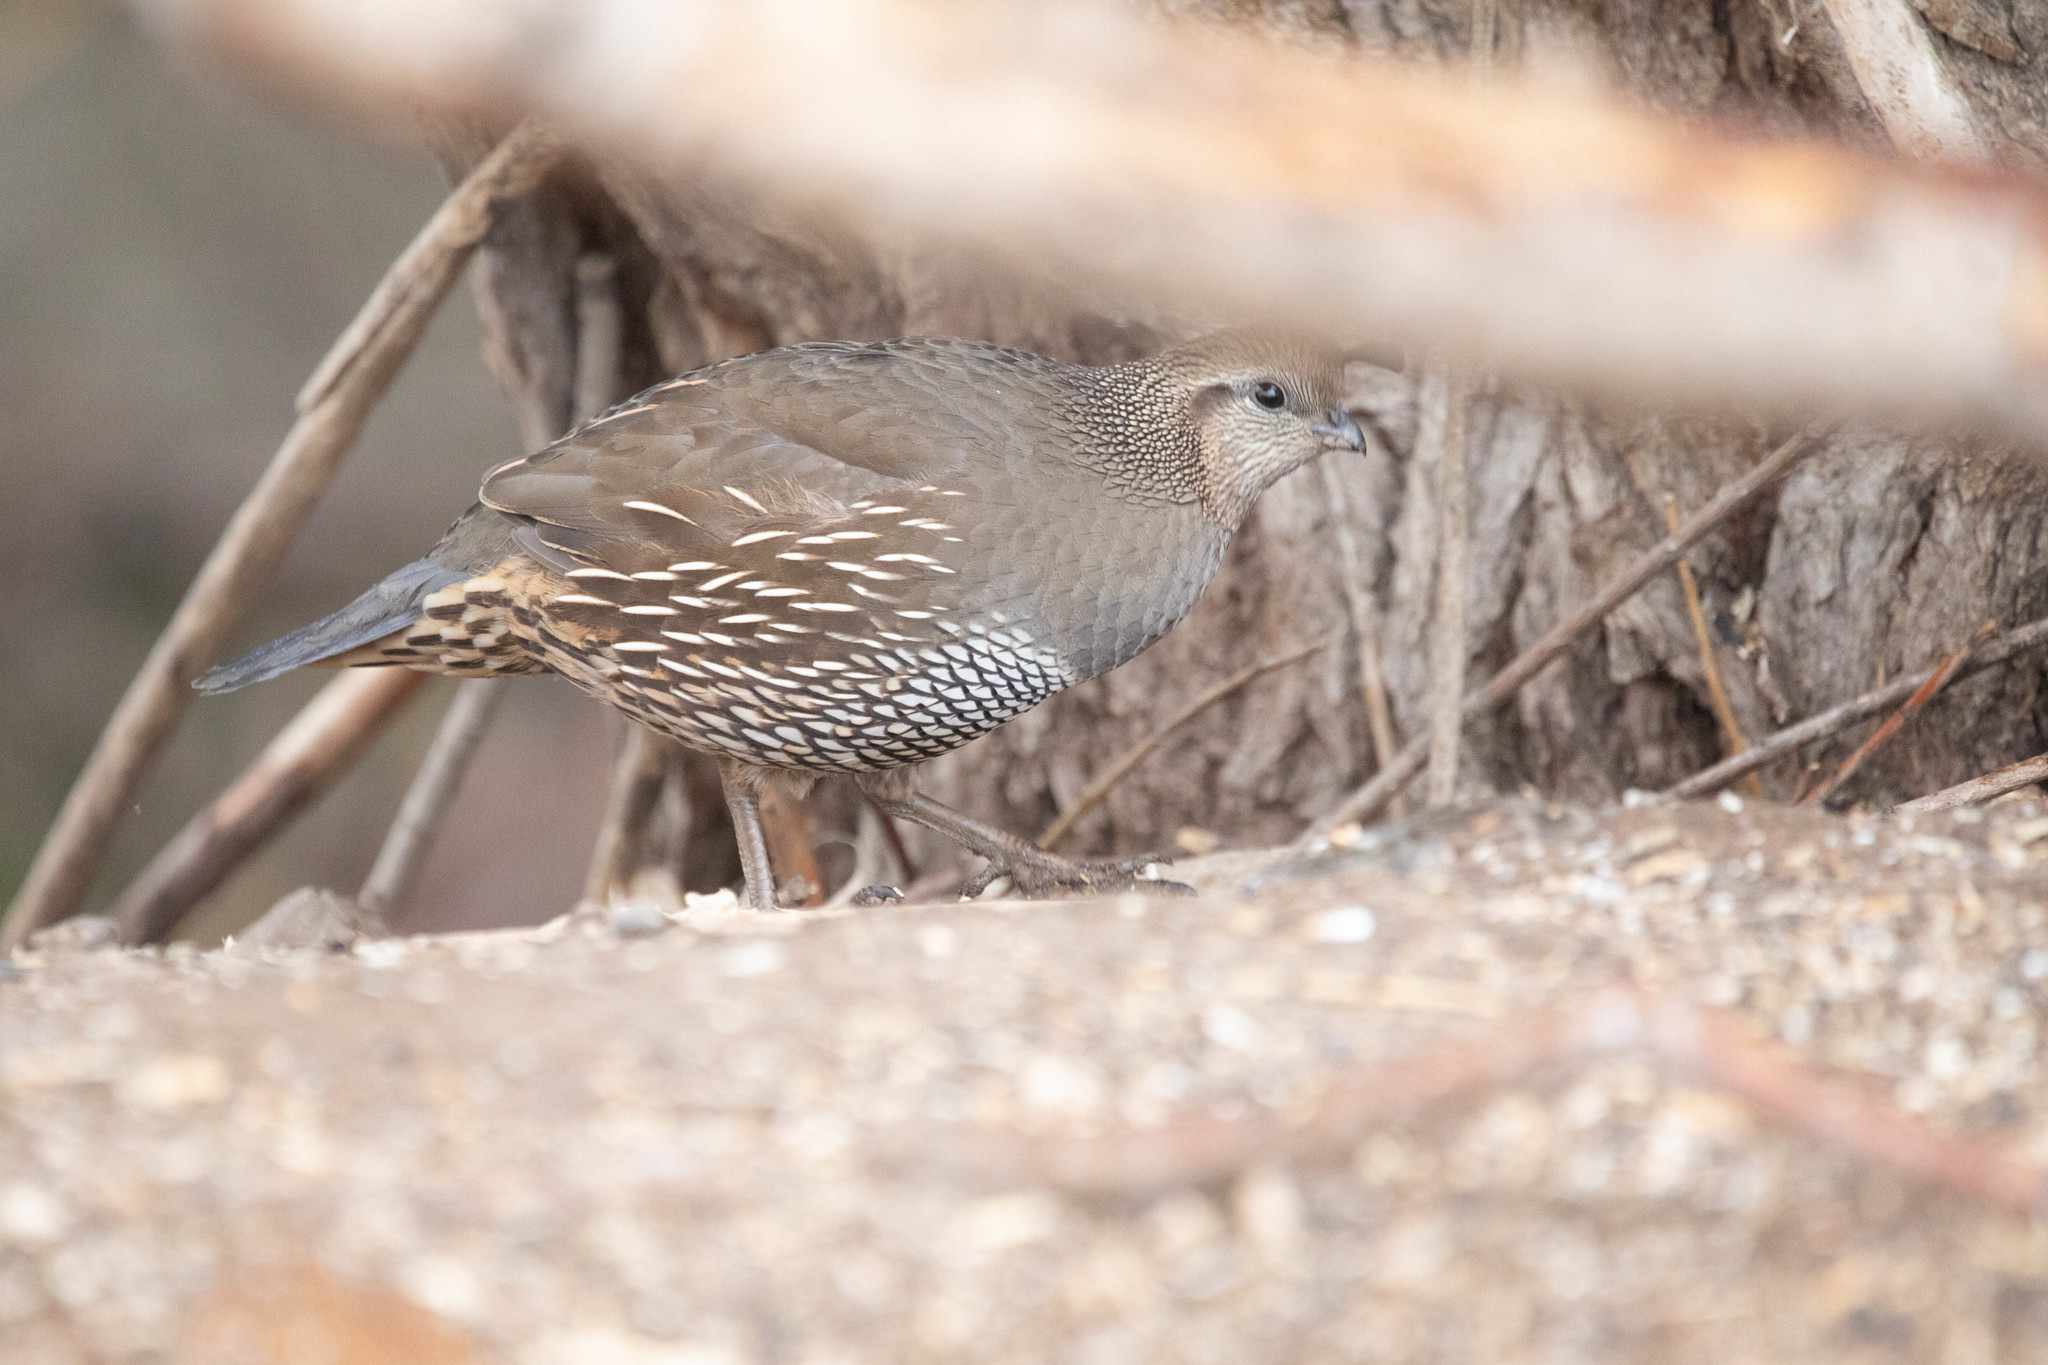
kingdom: Animalia
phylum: Chordata
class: Aves
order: Galliformes
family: Odontophoridae
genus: Callipepla
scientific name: Callipepla californica
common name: California quail
